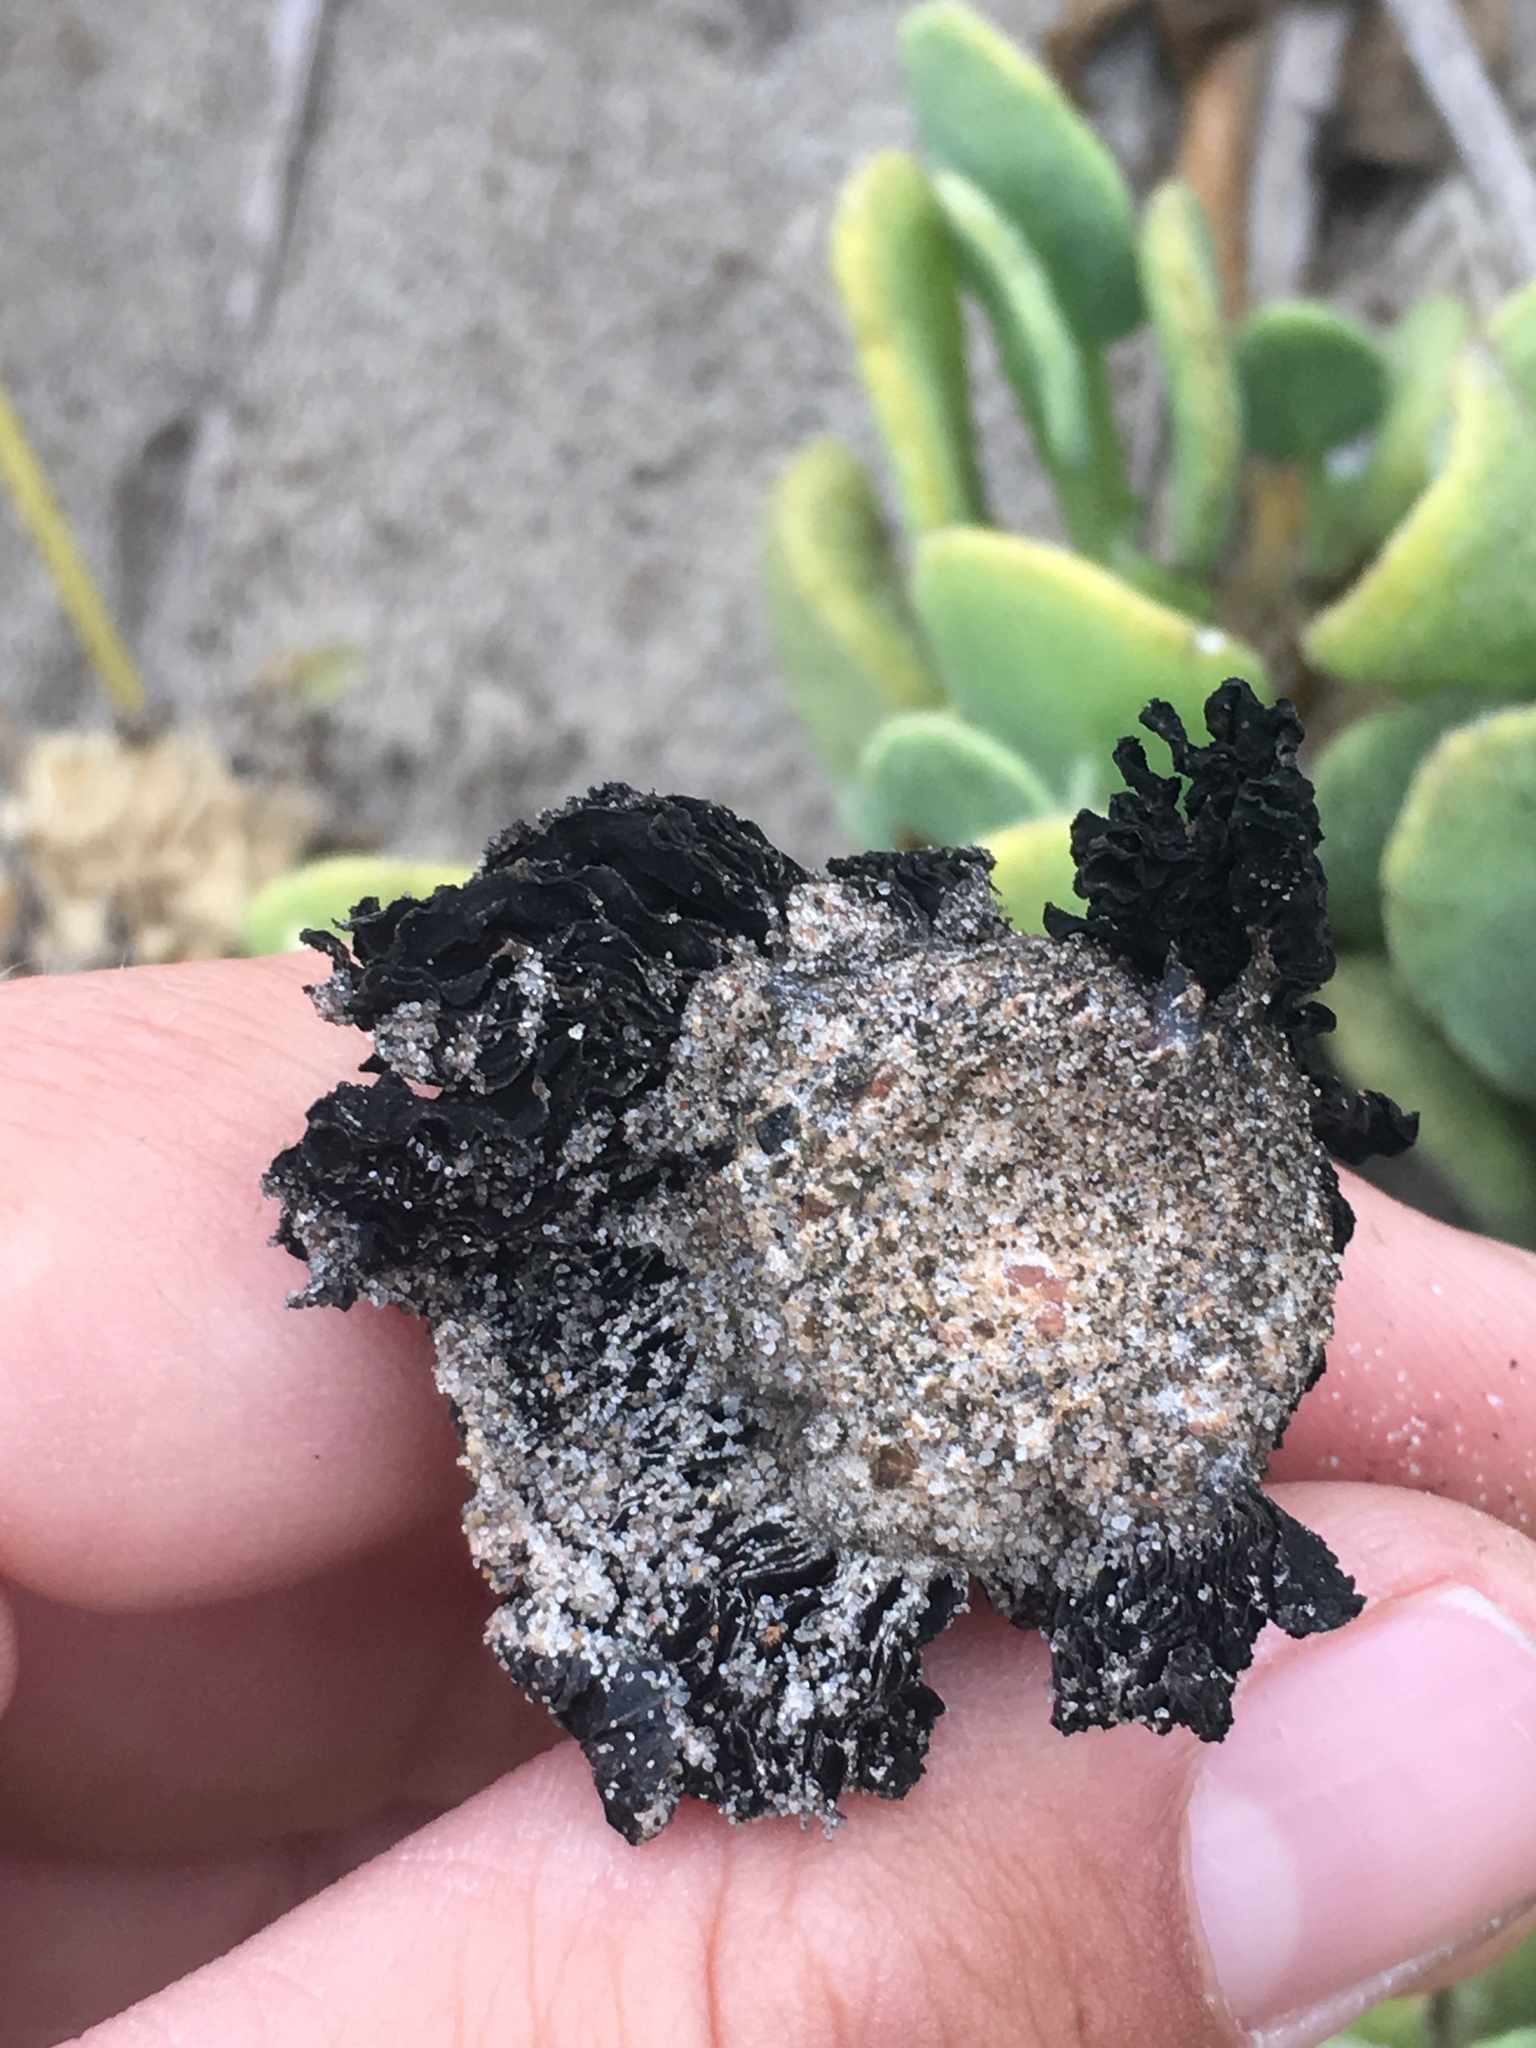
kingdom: Fungi
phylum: Basidiomycota
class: Agaricomycetes
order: Agaricales
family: Agaricaceae
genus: Montagnea
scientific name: Montagnea arenaria
